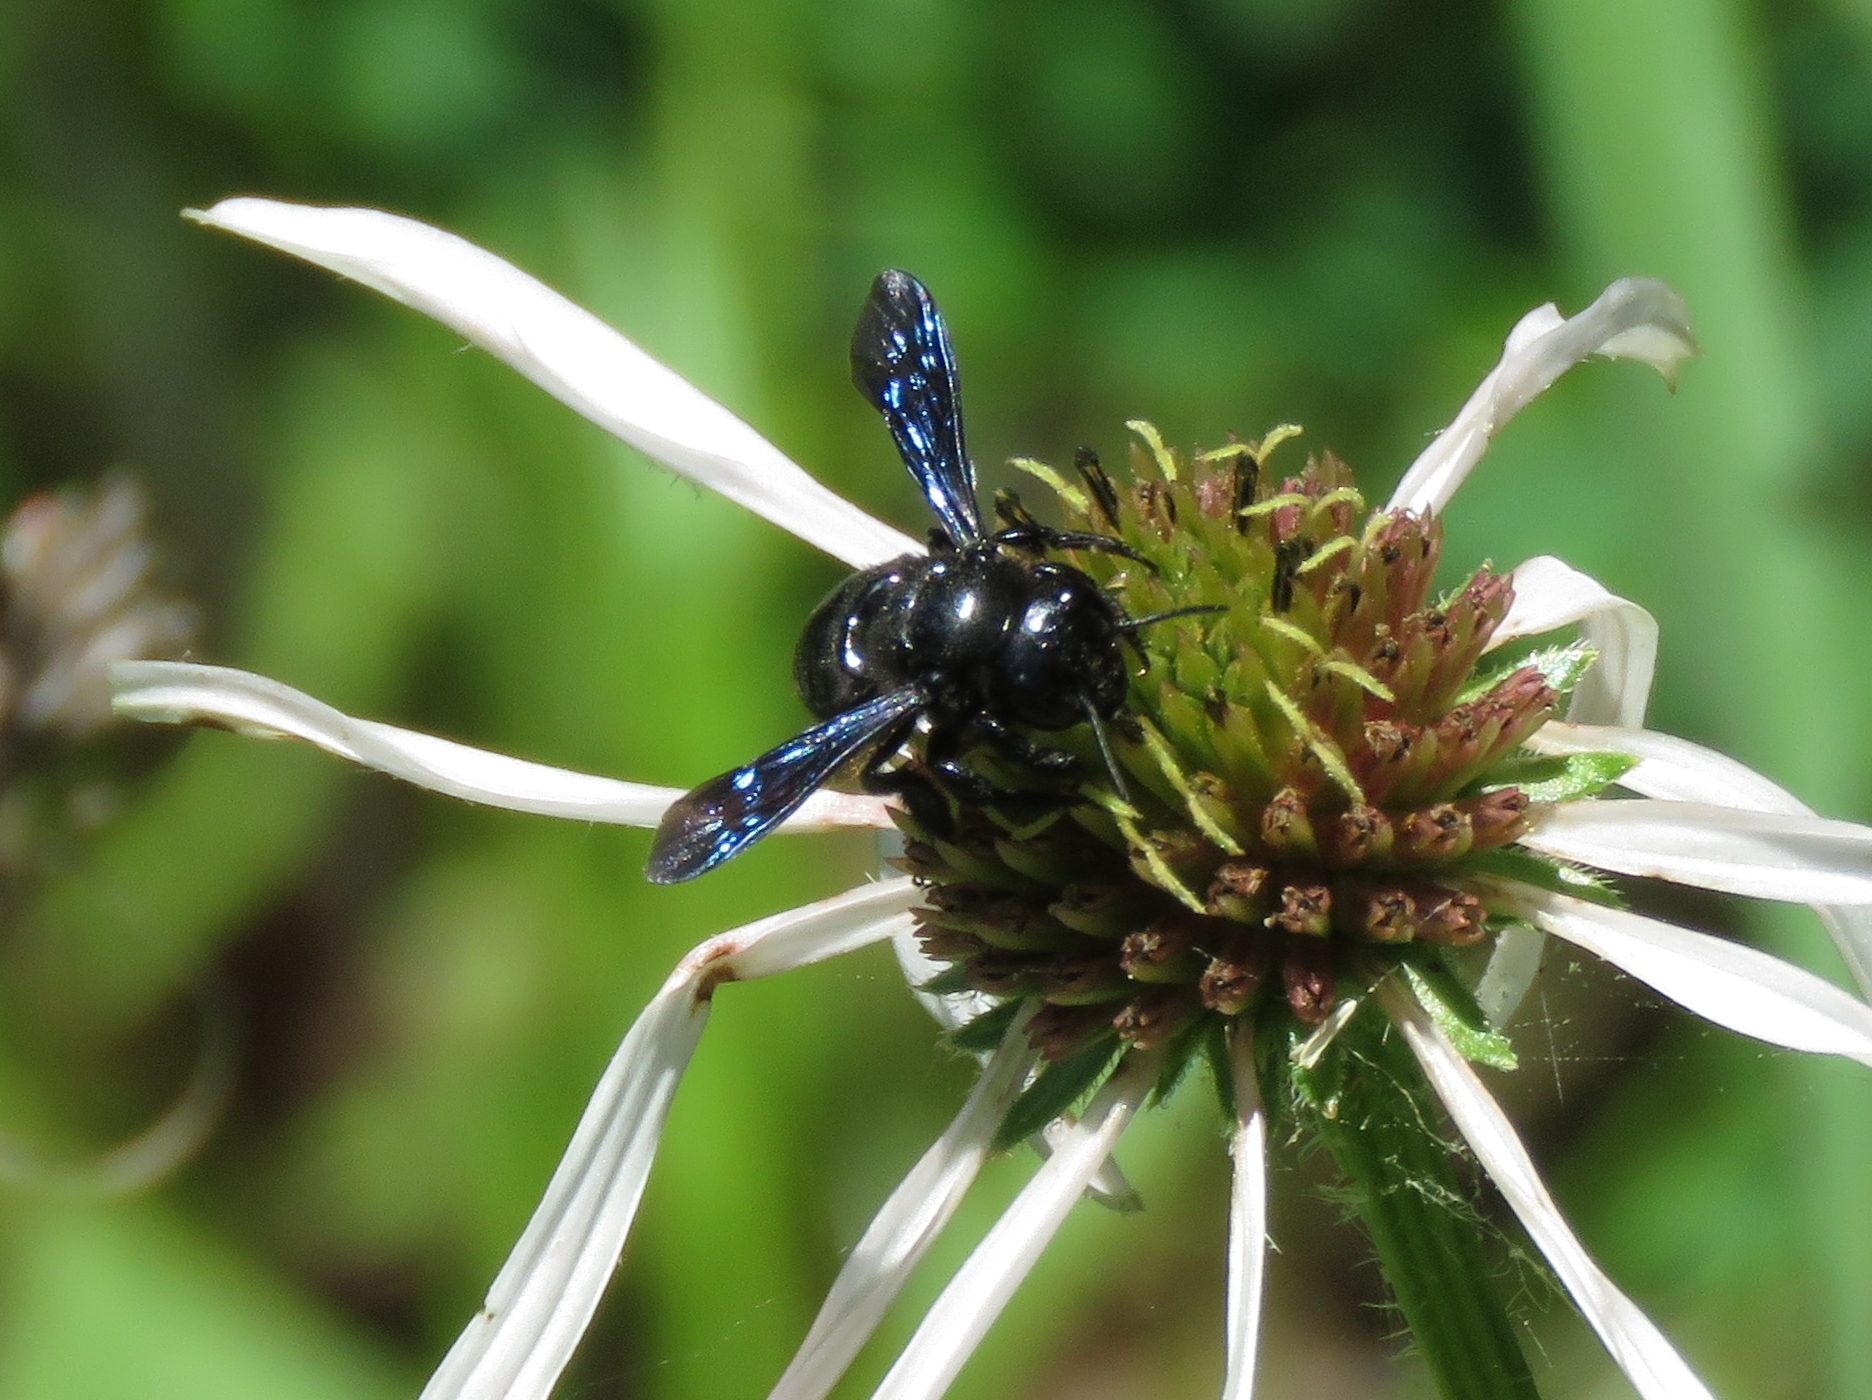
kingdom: Animalia
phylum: Arthropoda
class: Insecta
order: Hymenoptera
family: Megachilidae
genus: Megachile
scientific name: Megachile xylocopoides
